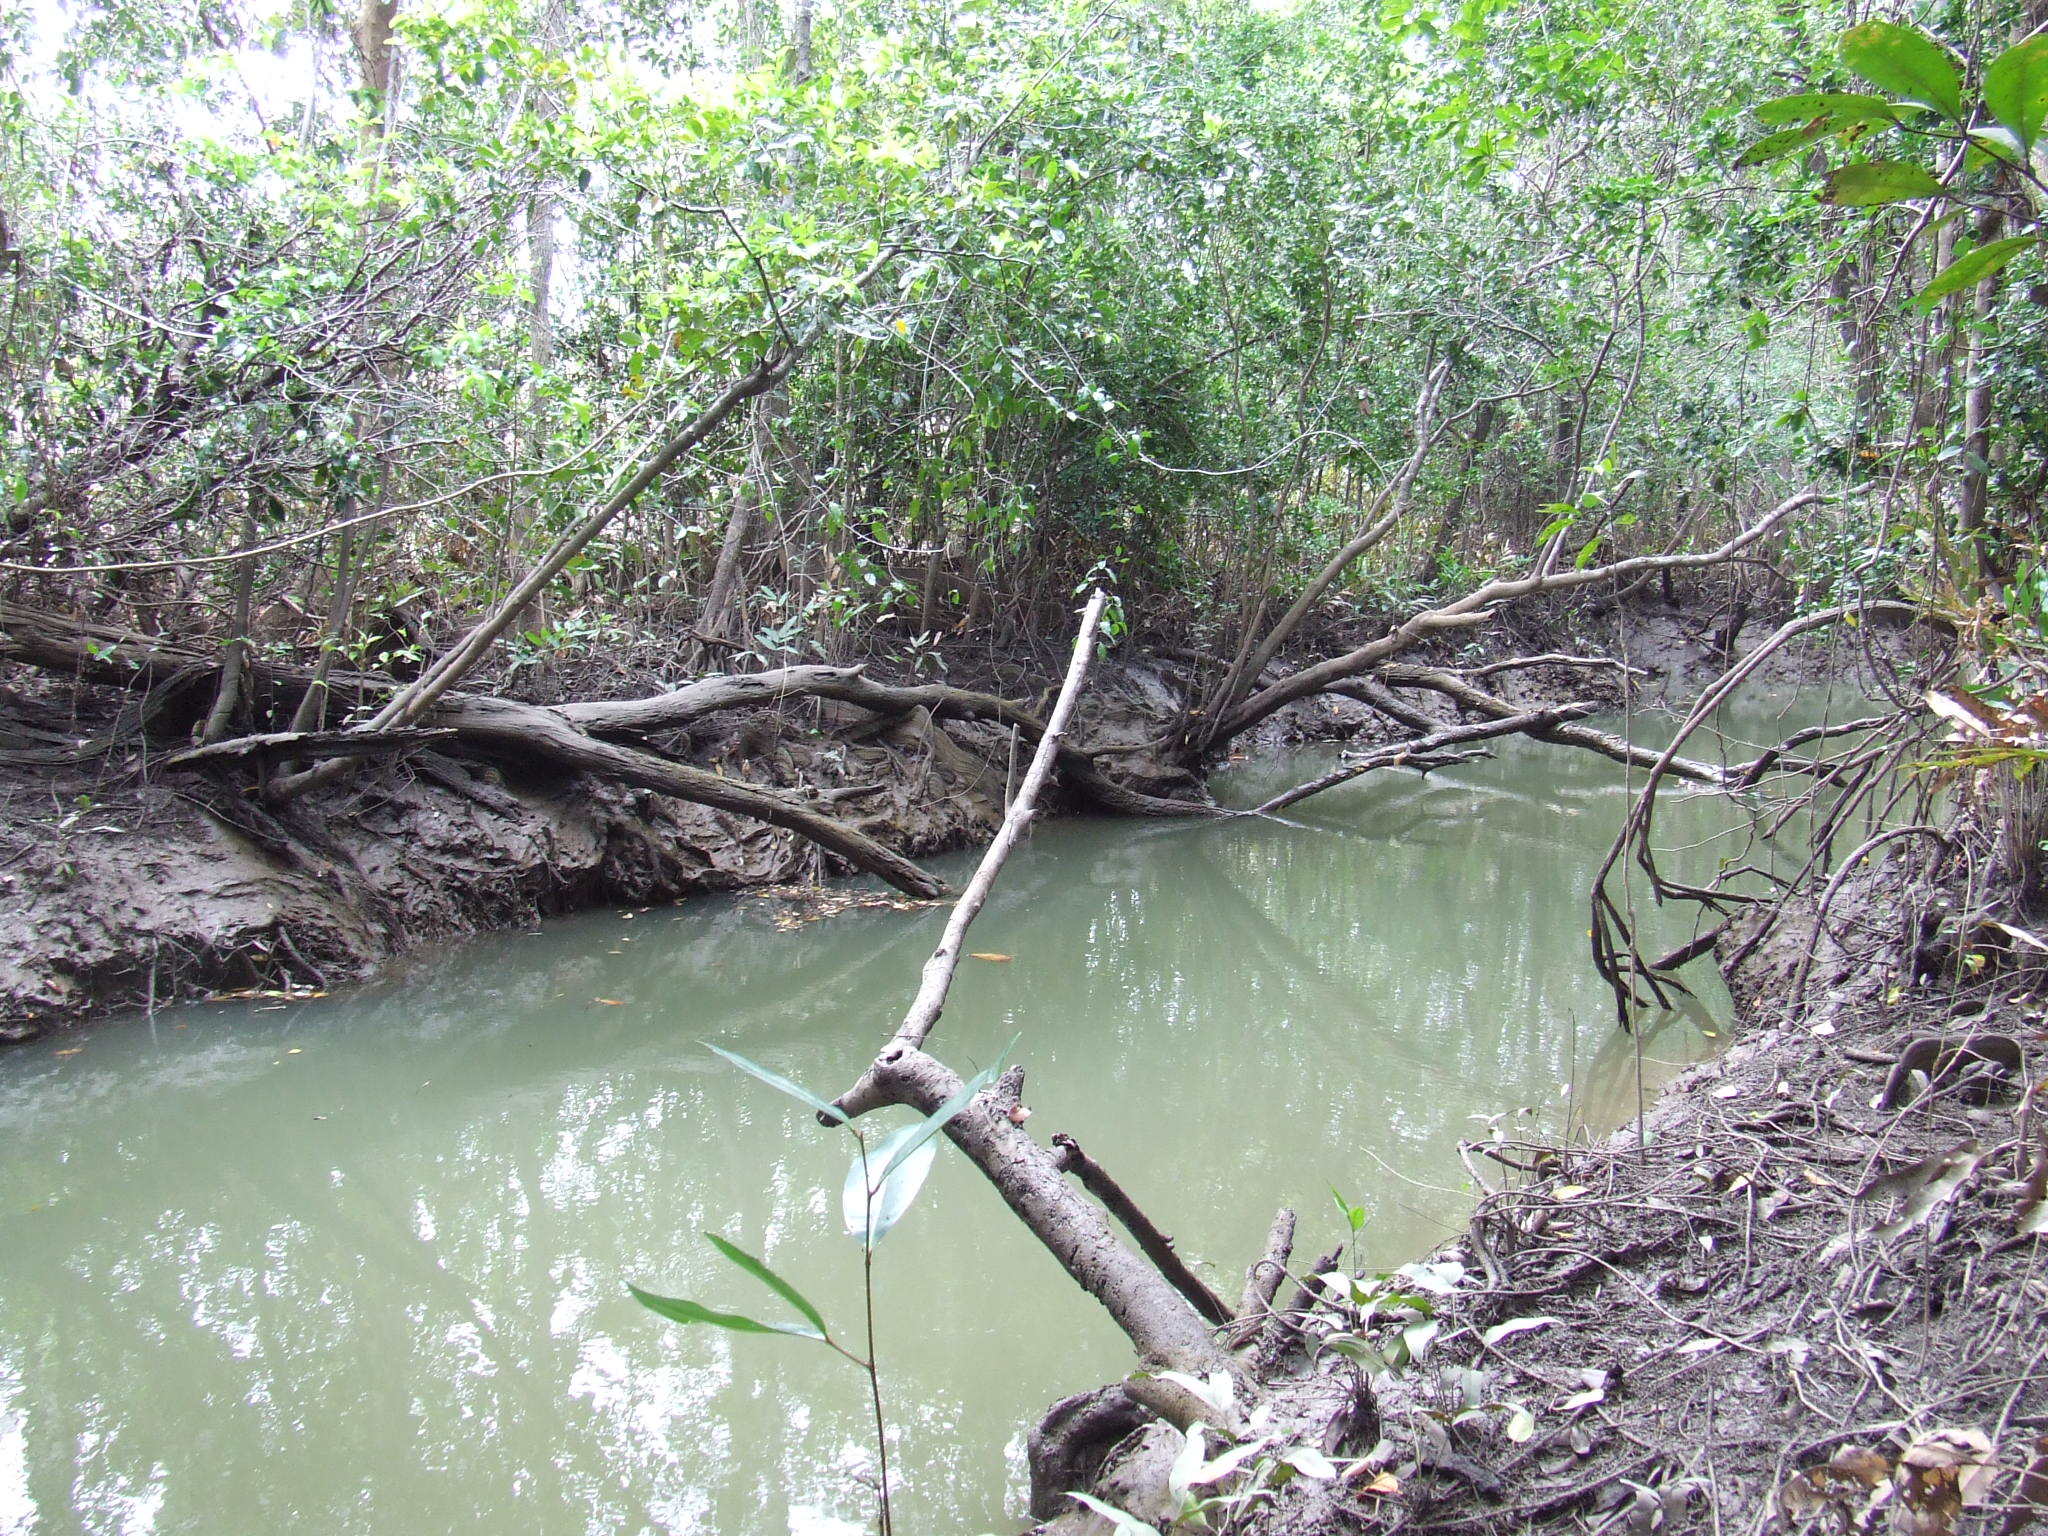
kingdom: Animalia
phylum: Chordata
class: Elasmobranchii
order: Carcharhiniformes
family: Carcharhinidae
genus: Glyphis
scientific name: Glyphis glyphis
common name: Speartooth shark
